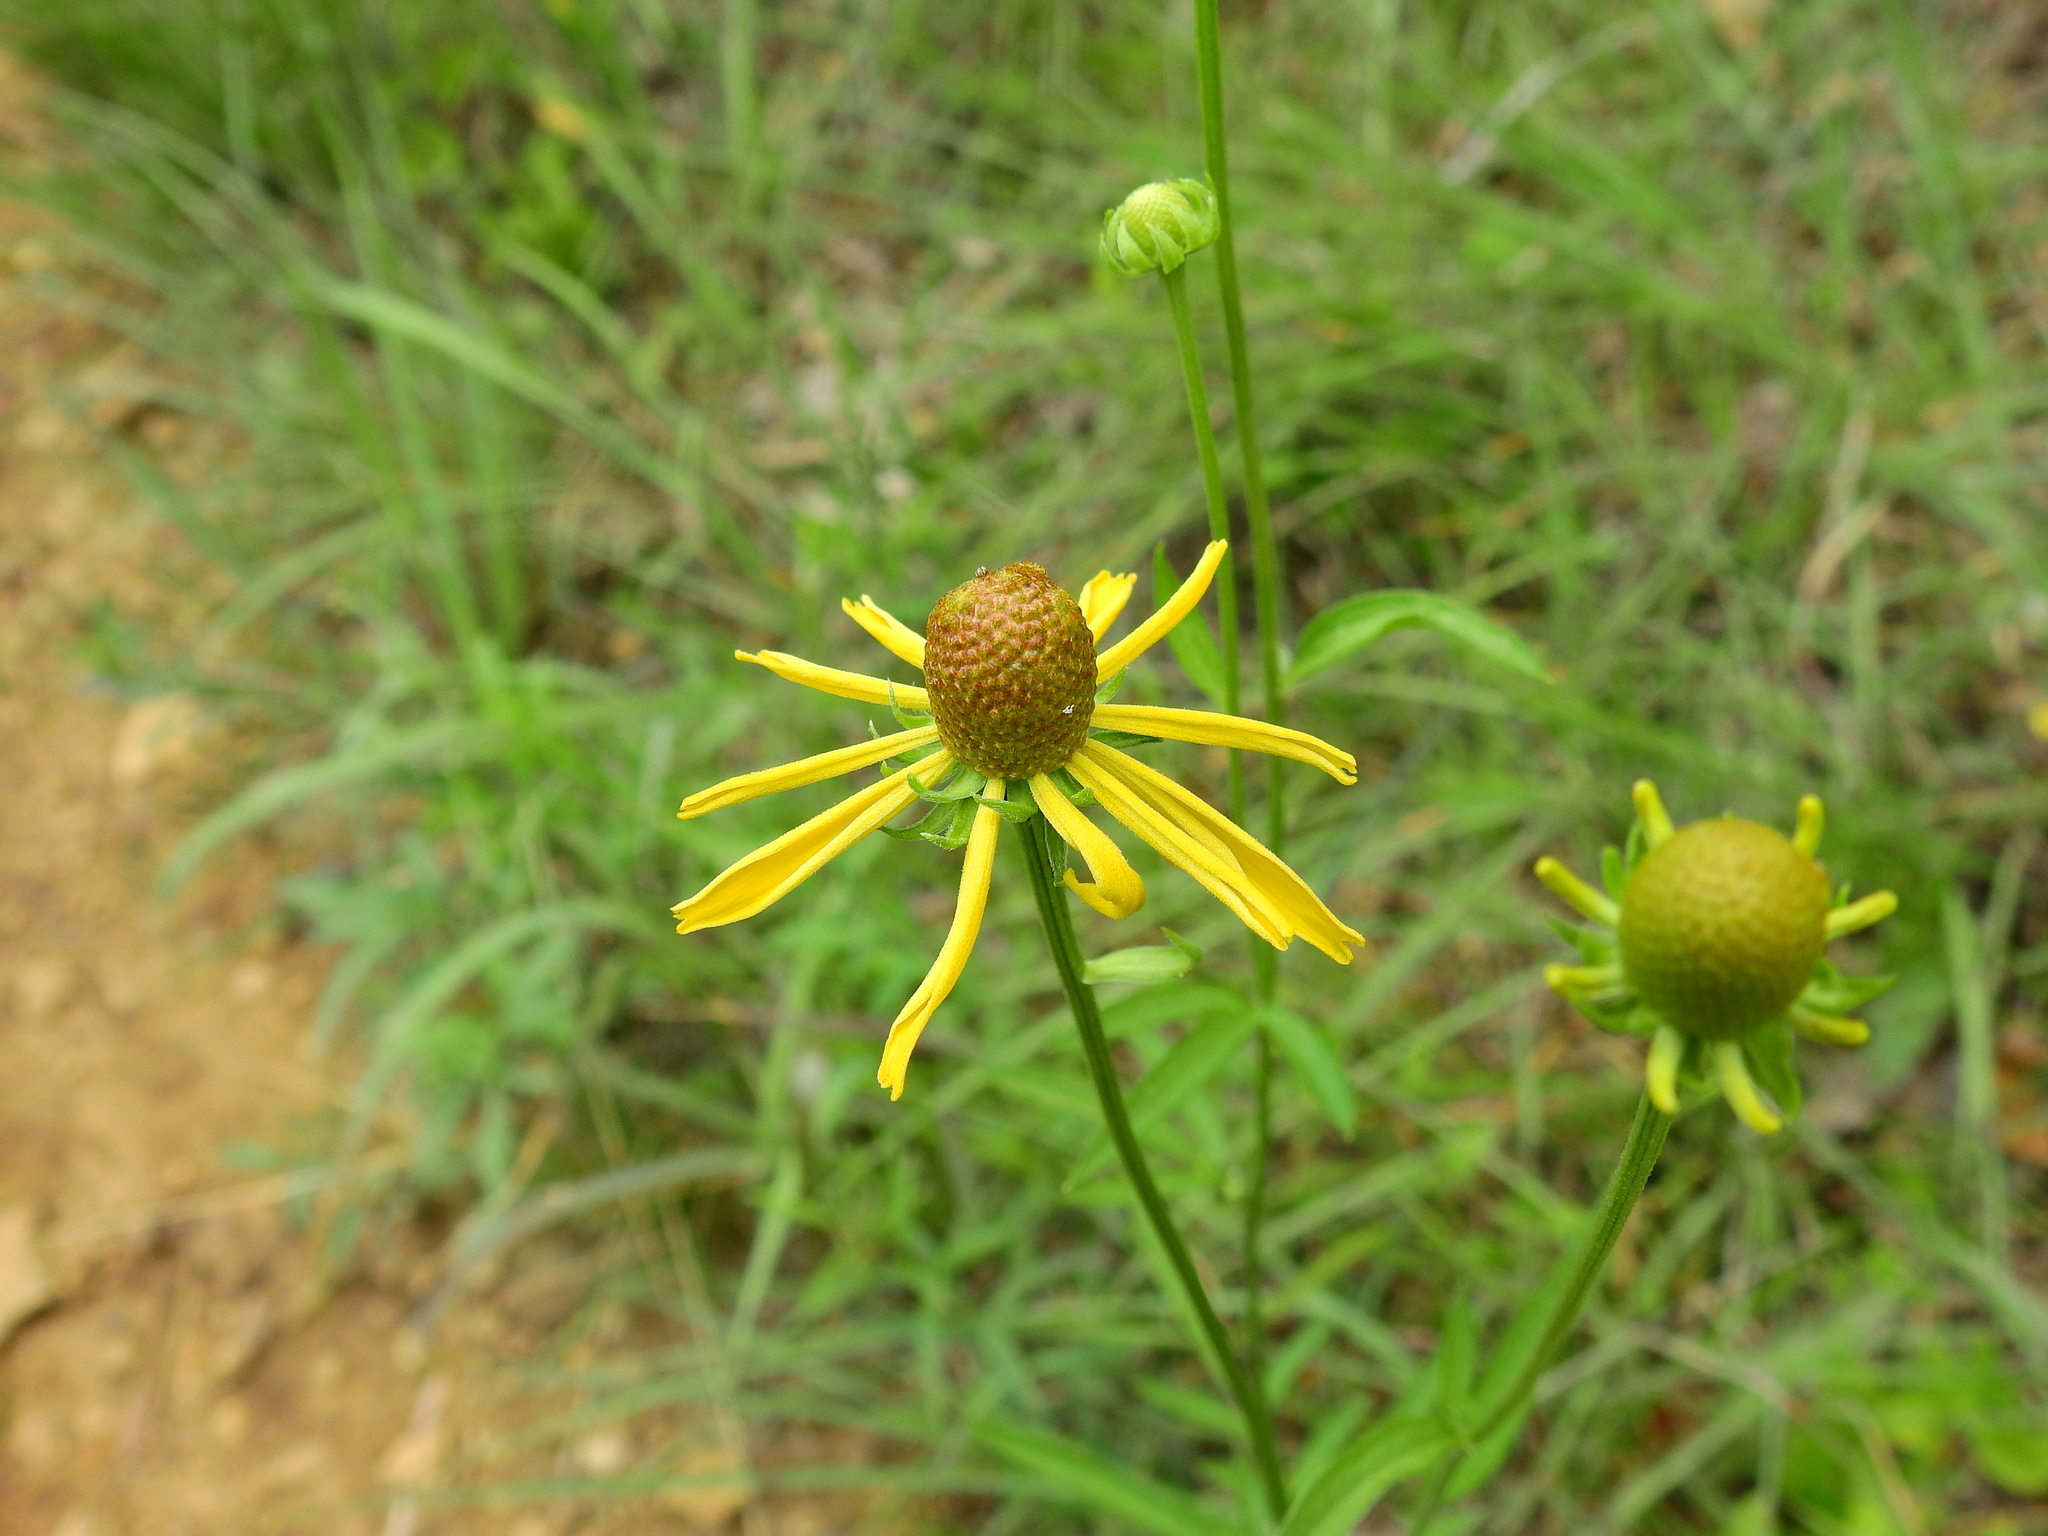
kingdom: Plantae
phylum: Tracheophyta
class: Magnoliopsida
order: Asterales
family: Asteraceae
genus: Ratibida
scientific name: Ratibida pinnata
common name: Drooping prairie-coneflower
